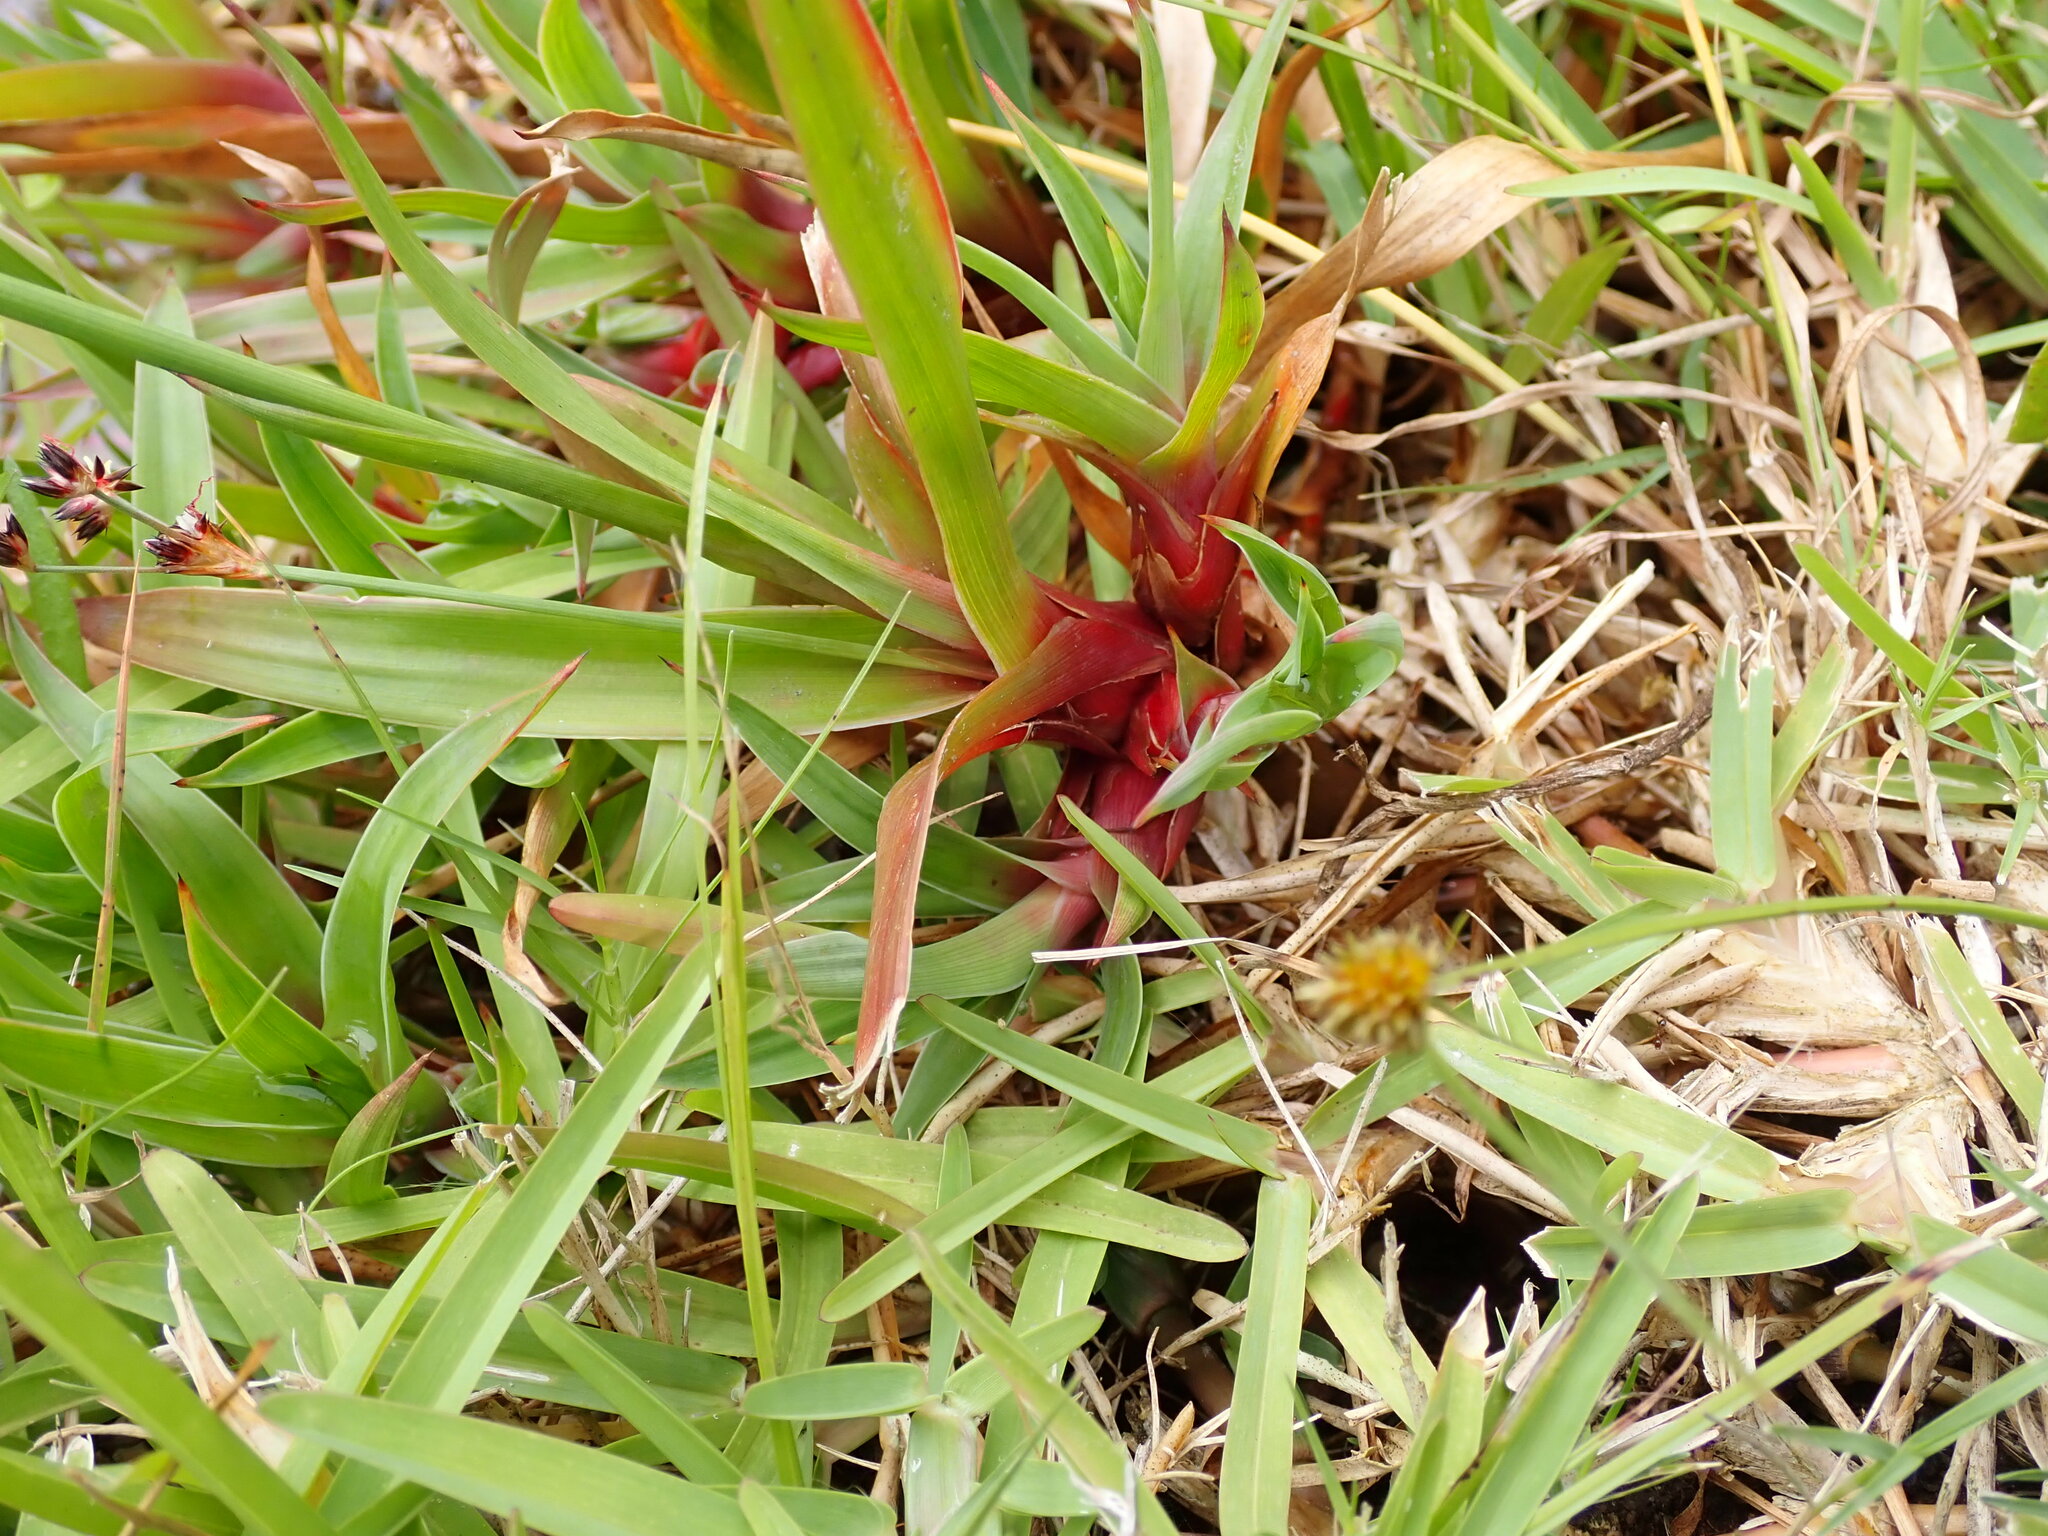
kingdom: Plantae
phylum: Tracheophyta
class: Liliopsida
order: Poales
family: Juncaceae
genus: Juncus
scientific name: Juncus lomatophyllus
